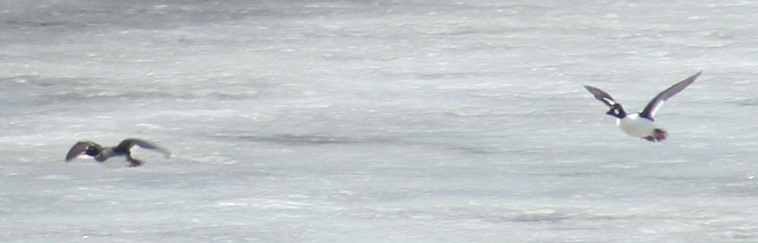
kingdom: Animalia
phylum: Chordata
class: Aves
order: Anseriformes
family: Anatidae
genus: Bucephala
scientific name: Bucephala clangula
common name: Common goldeneye
